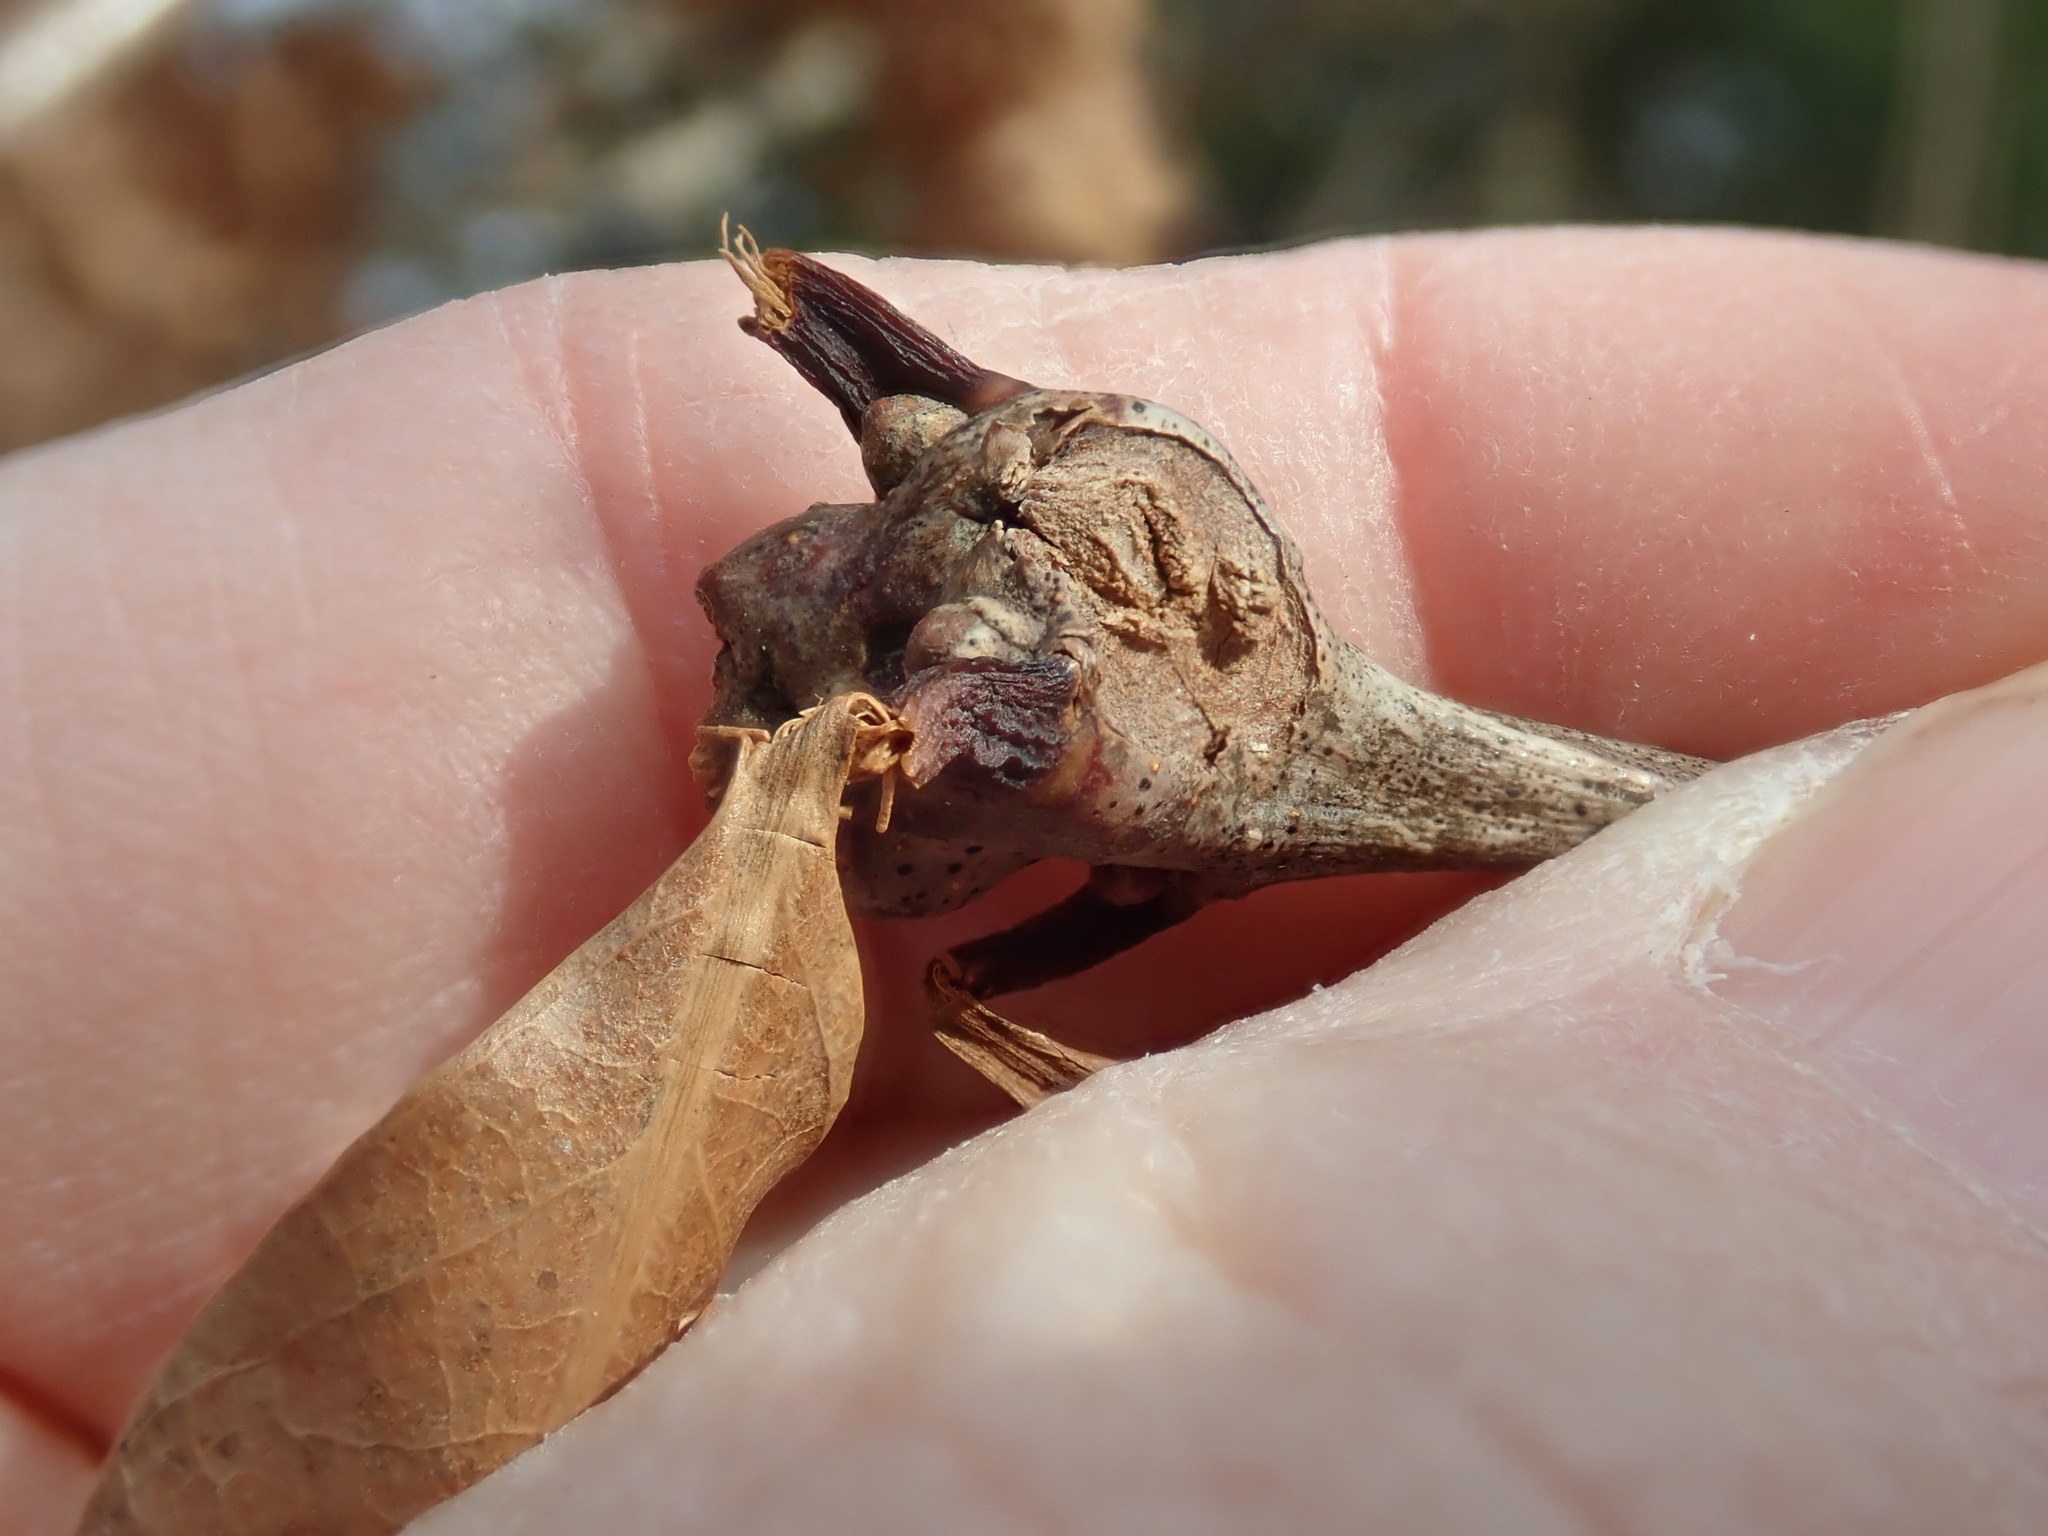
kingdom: Animalia
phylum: Arthropoda
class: Insecta
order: Hymenoptera
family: Cynipidae
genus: Callirhytis
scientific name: Callirhytis clavula
